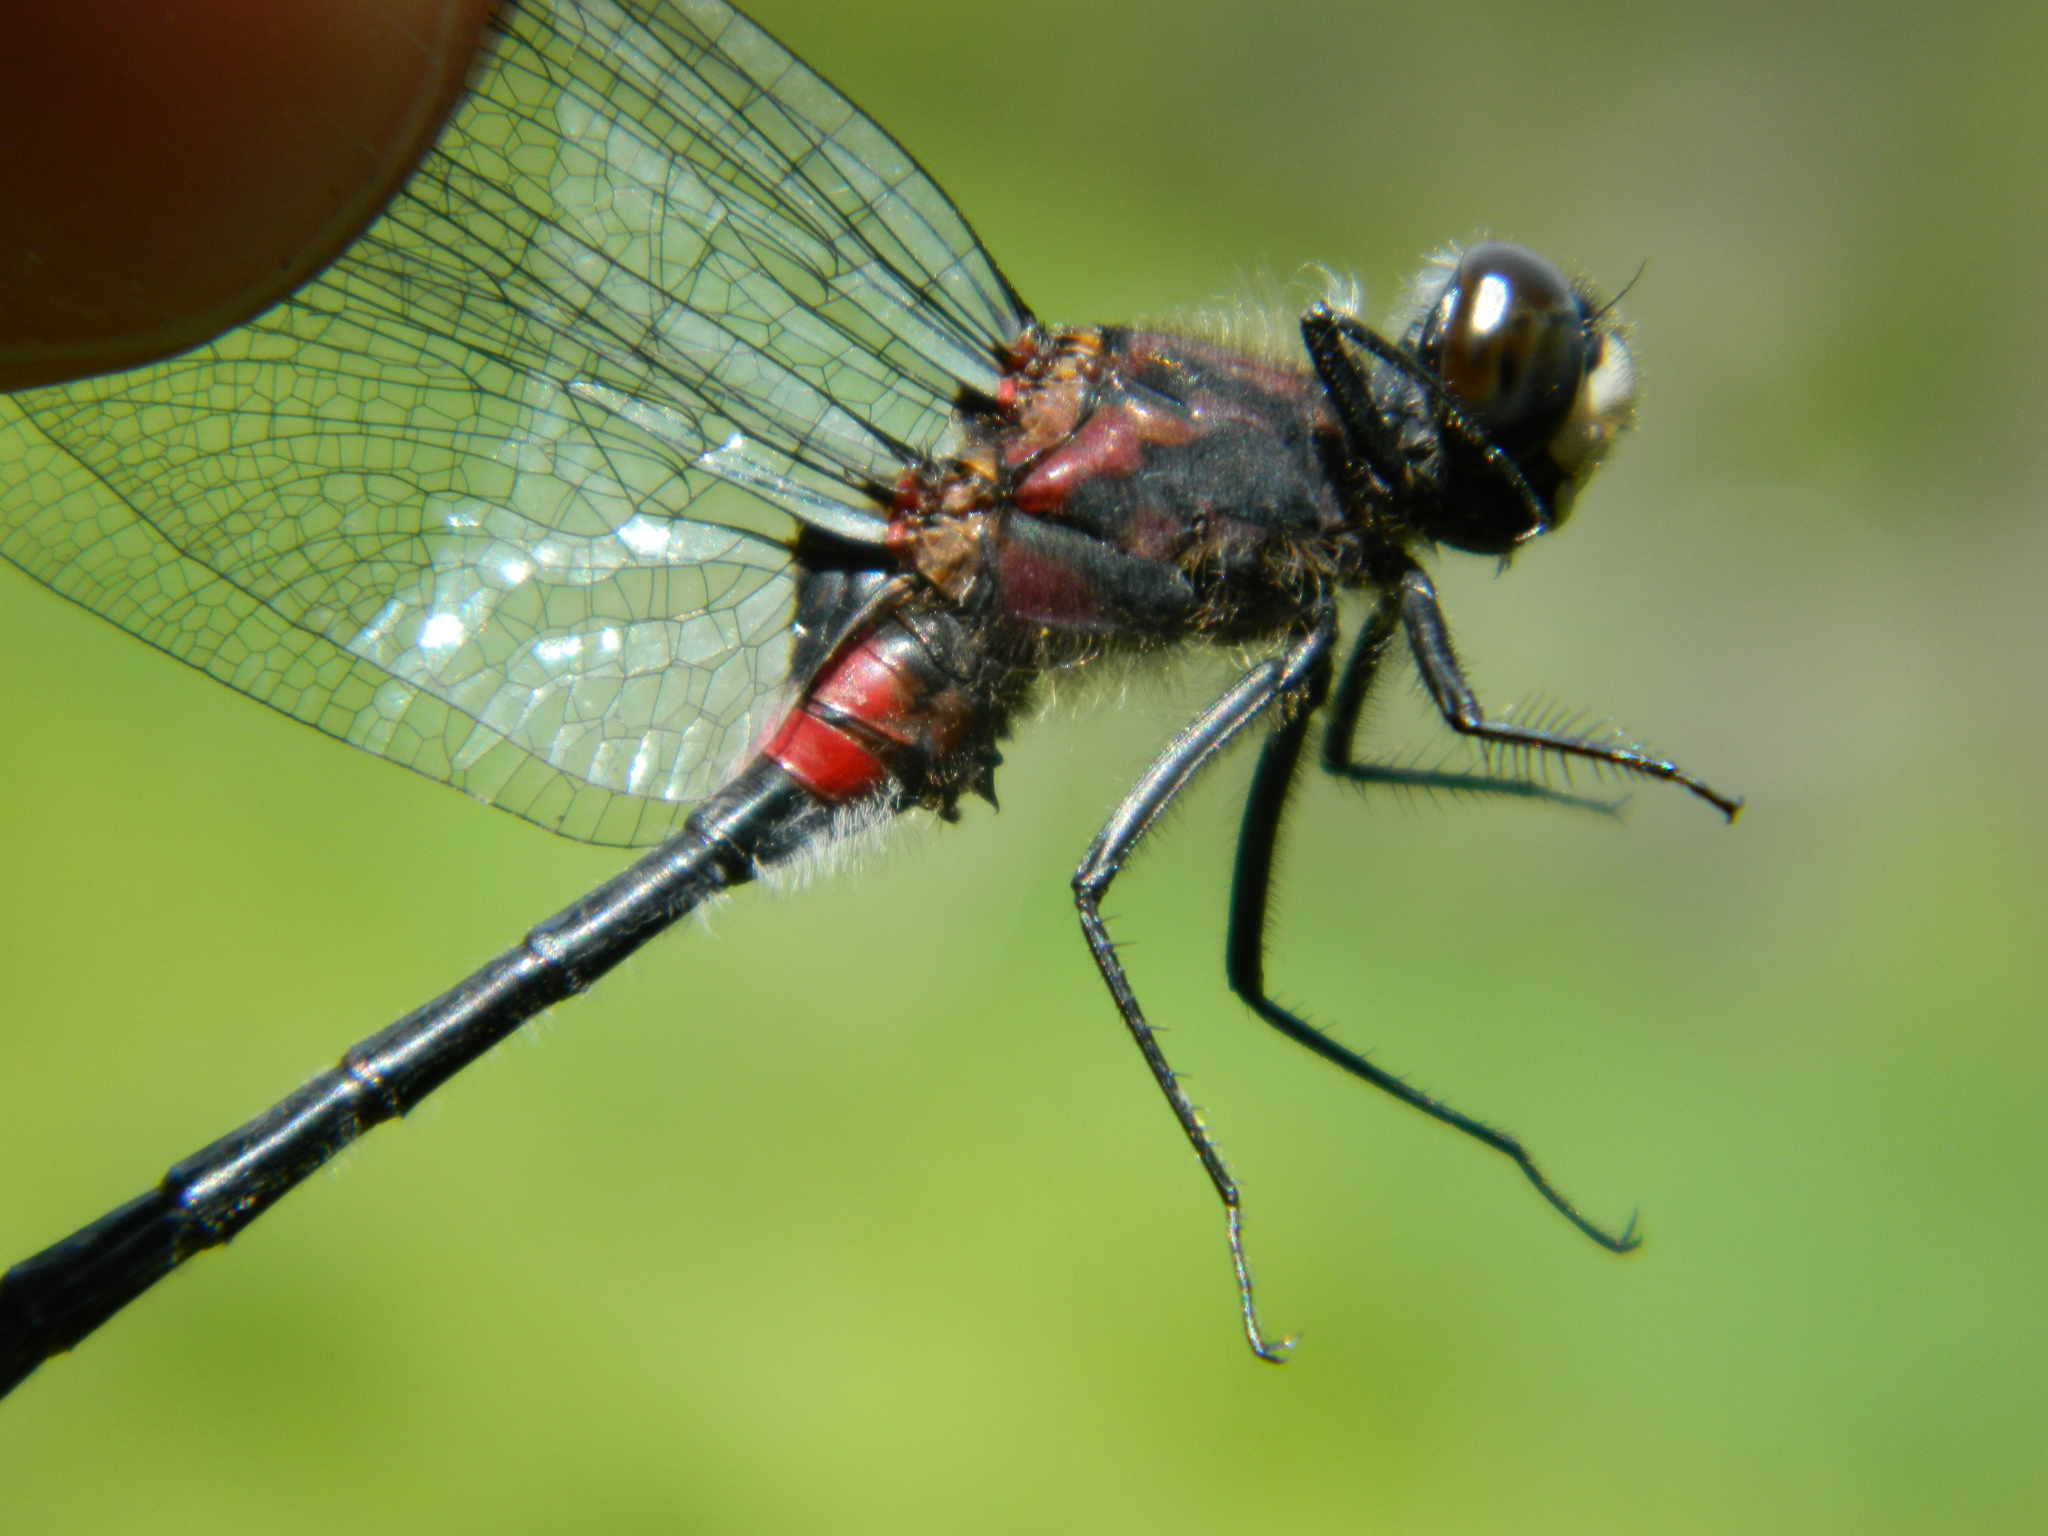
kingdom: Animalia
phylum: Arthropoda
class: Insecta
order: Odonata
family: Libellulidae
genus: Leucorrhinia
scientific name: Leucorrhinia glacialis
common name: Crimson-ringed whiteface
